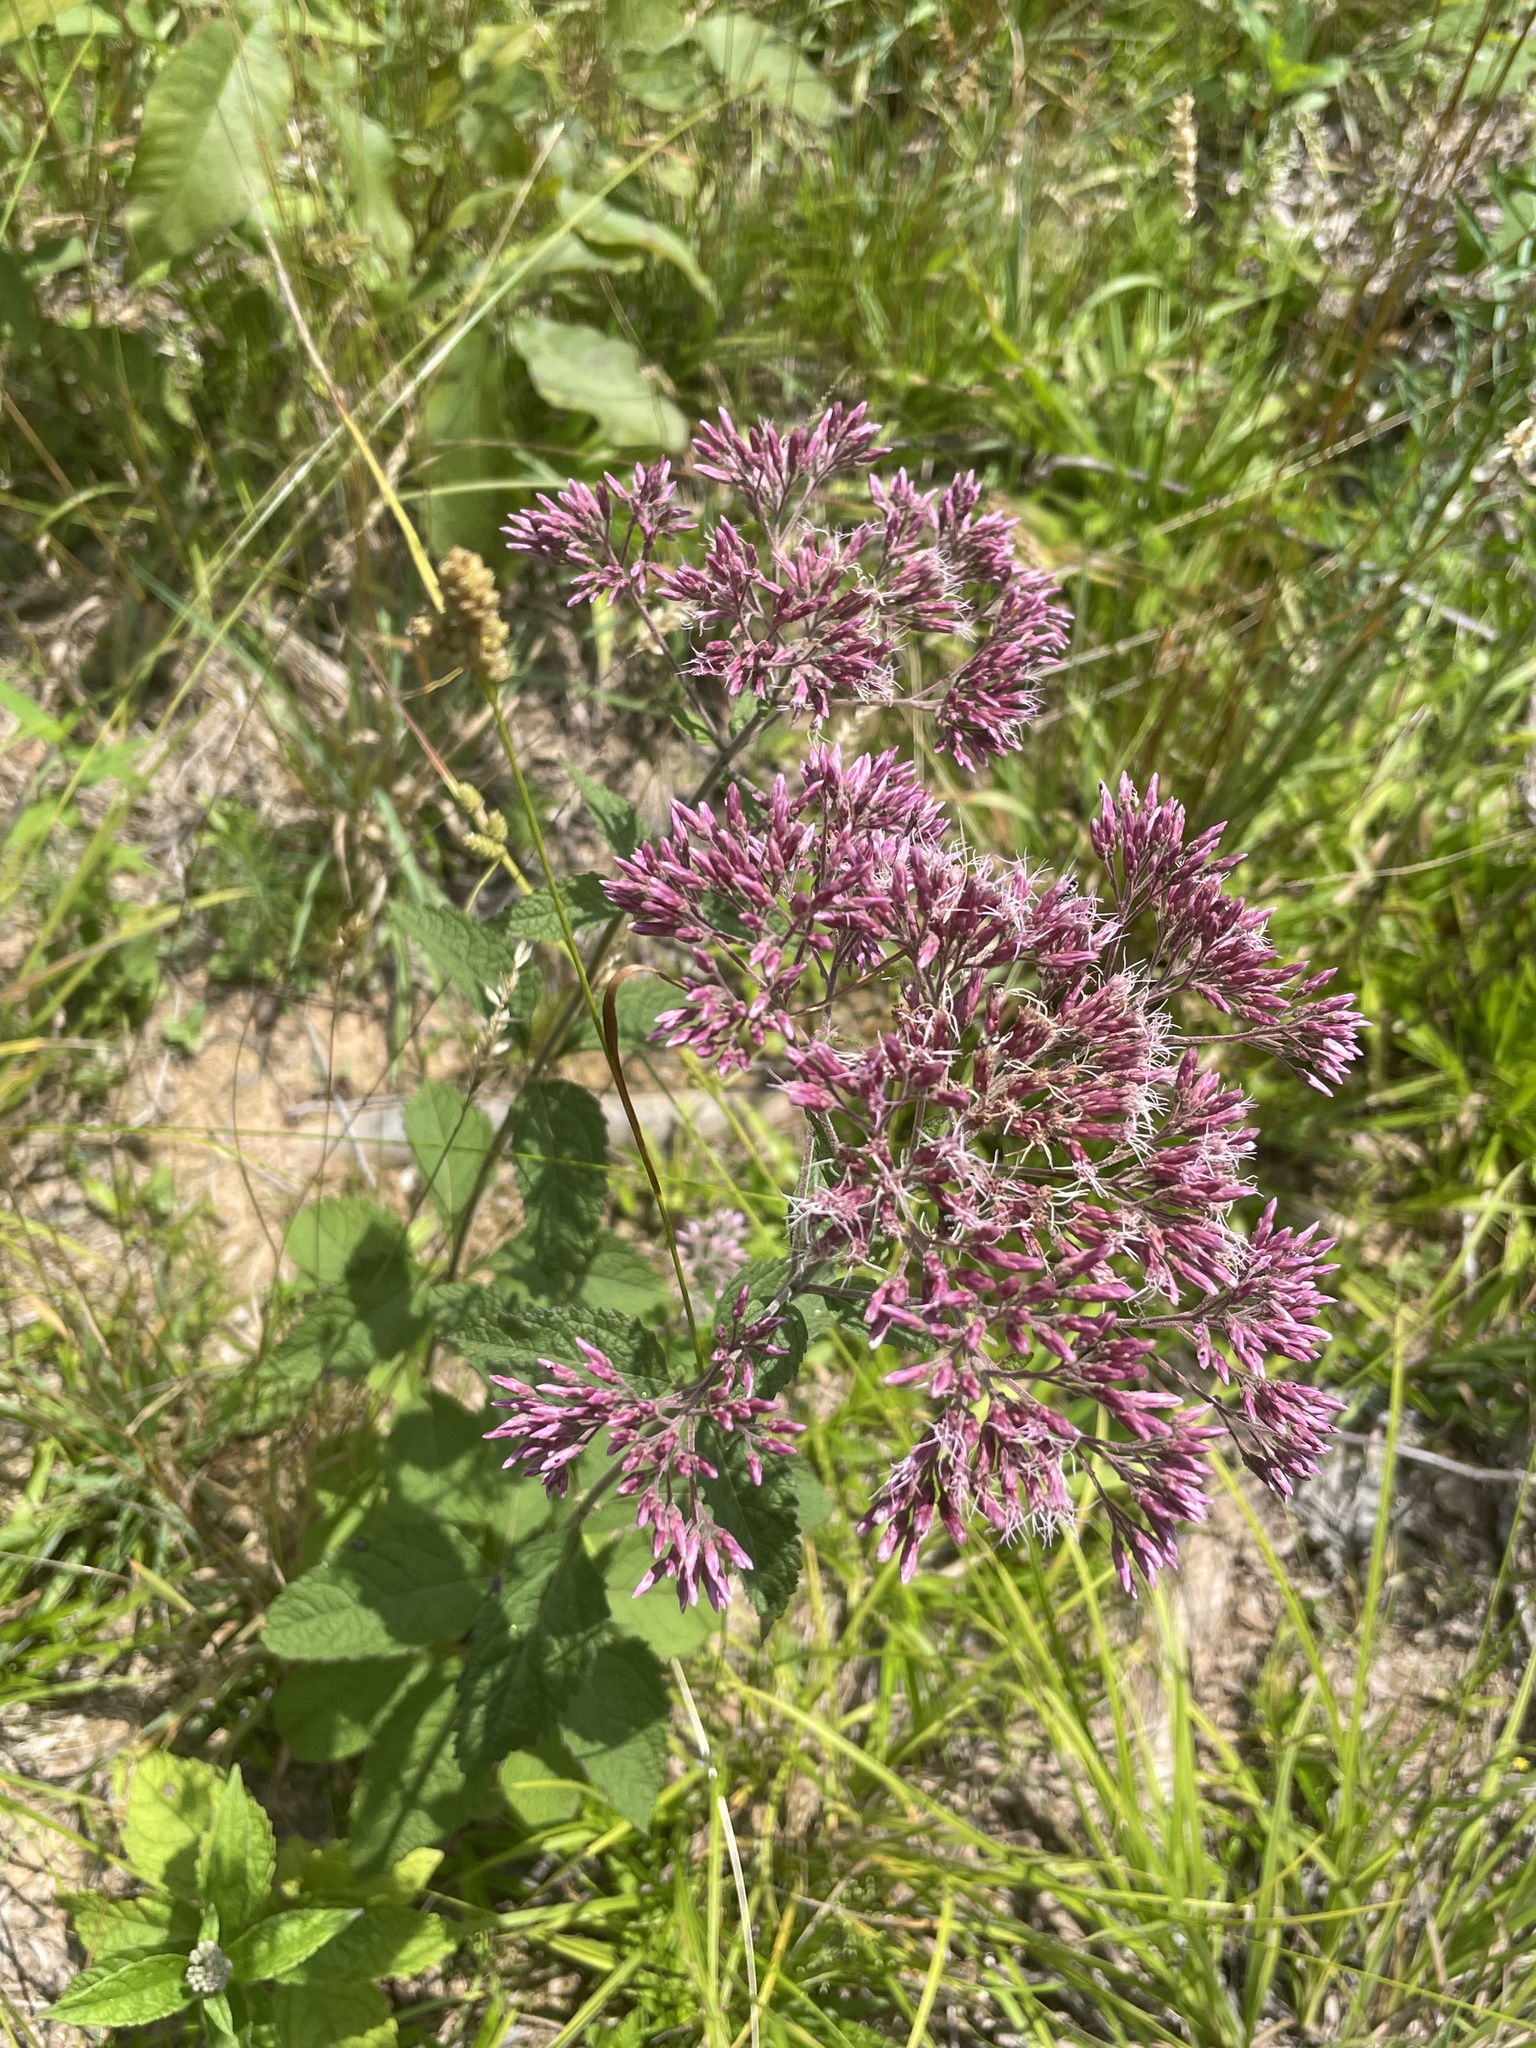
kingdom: Plantae
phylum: Tracheophyta
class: Magnoliopsida
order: Asterales
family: Asteraceae
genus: Eutrochium
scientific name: Eutrochium purpureum
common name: Gravelroot
